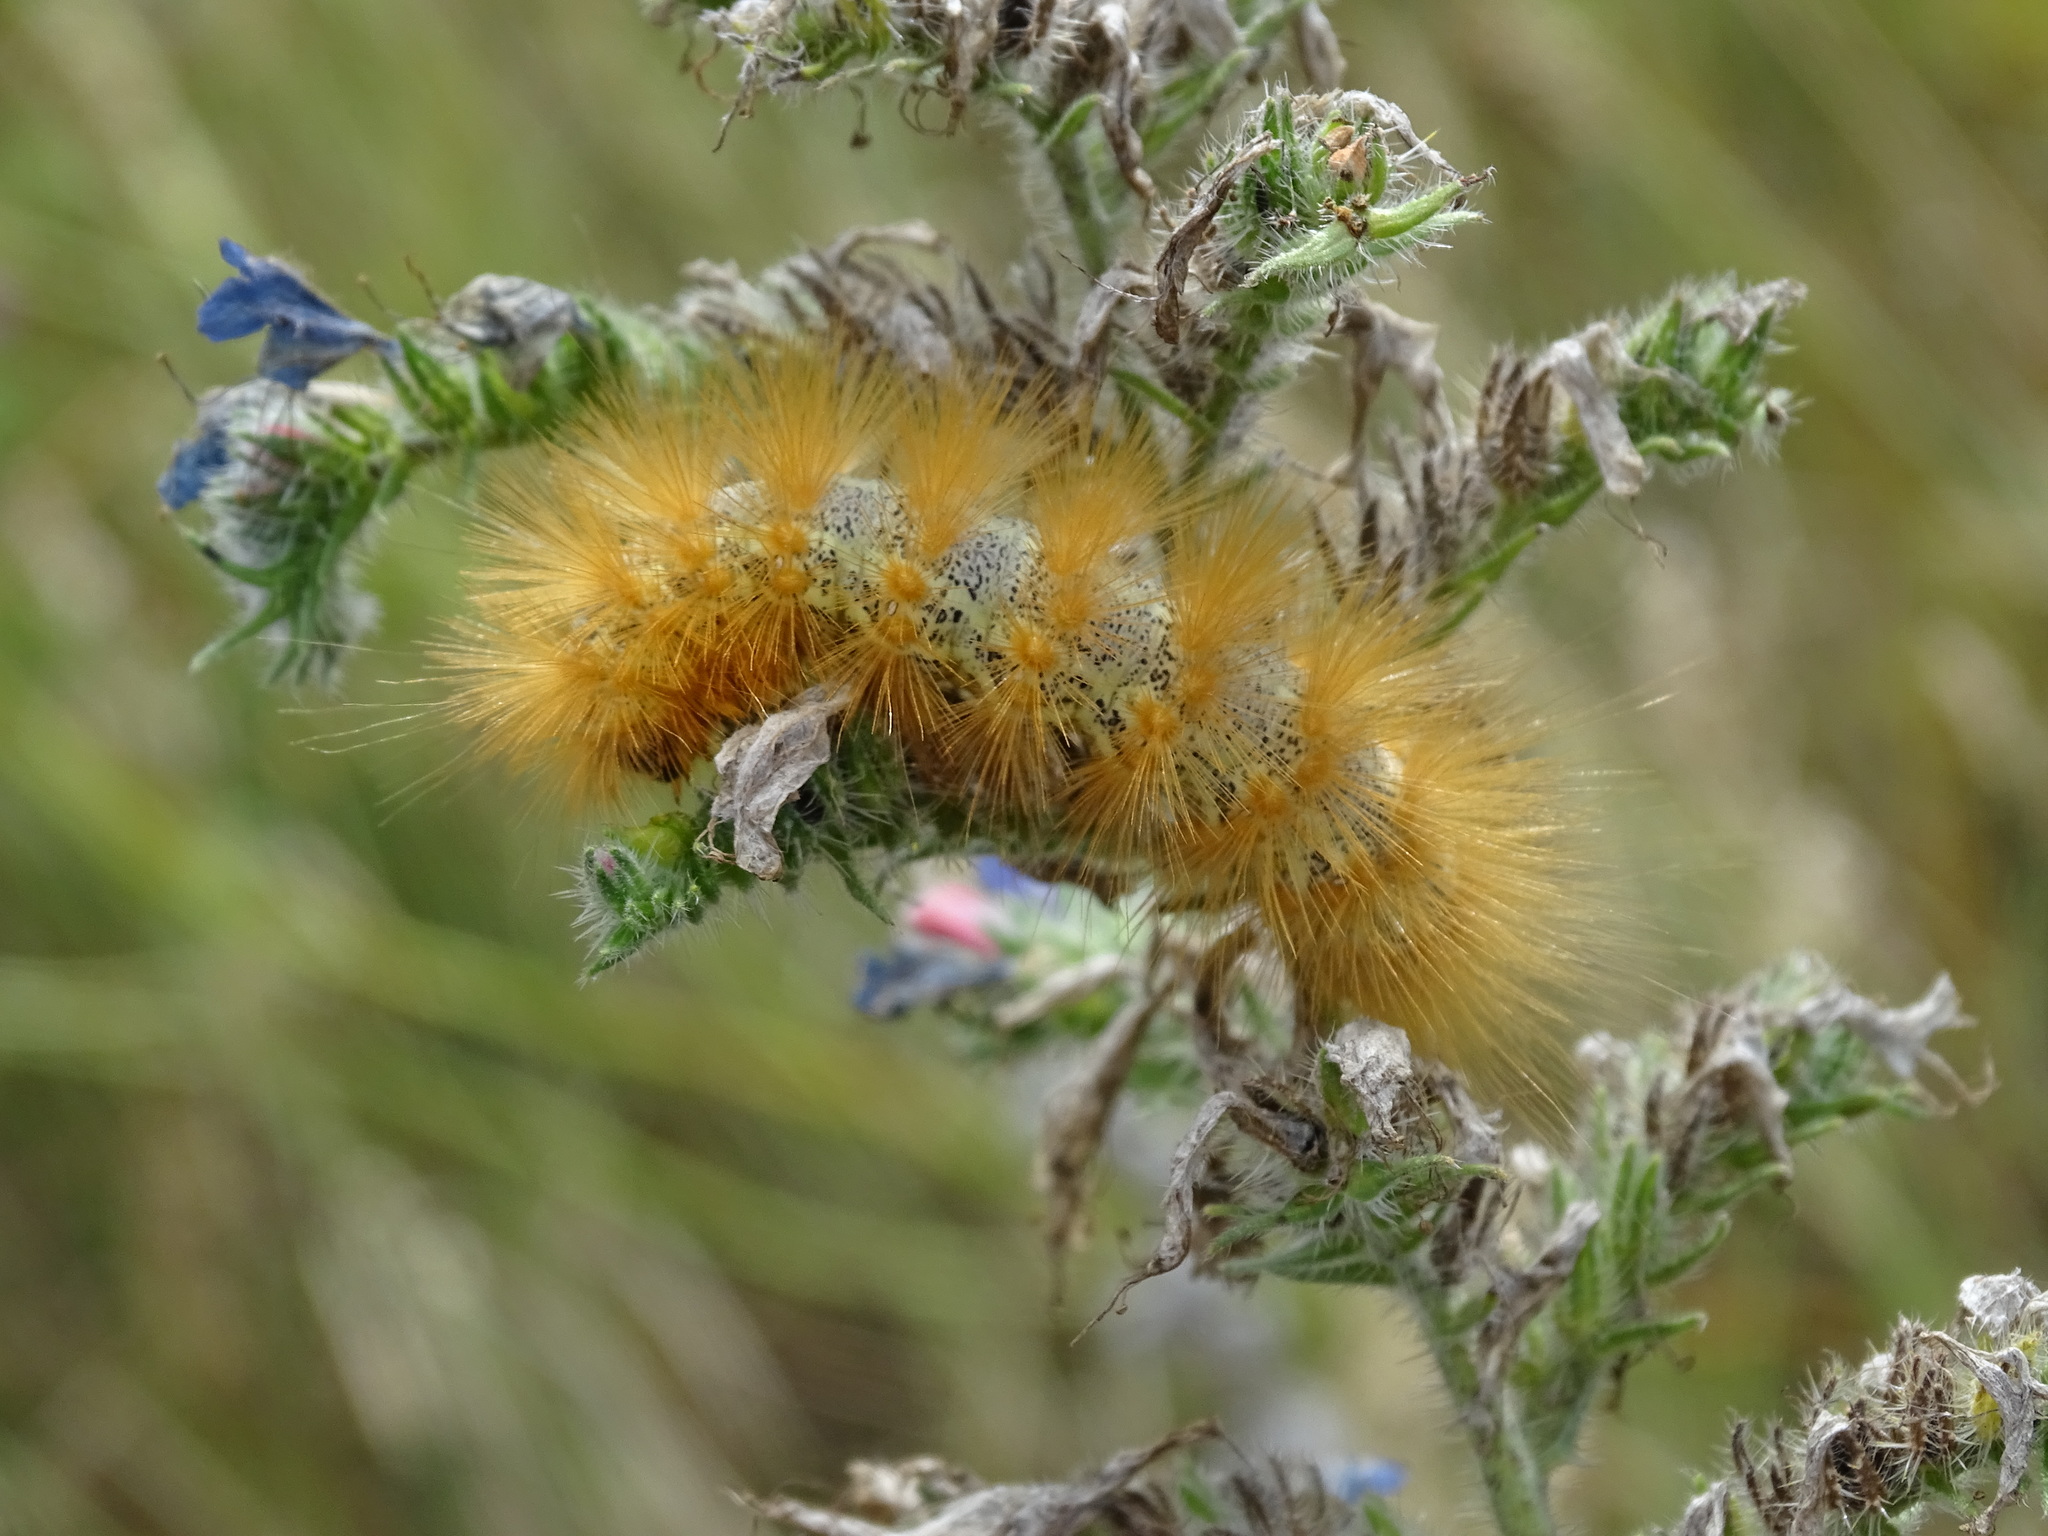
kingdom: Animalia
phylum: Arthropoda
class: Insecta
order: Lepidoptera
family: Erebidae
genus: Estigmene
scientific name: Estigmene acrea
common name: Salt marsh moth
